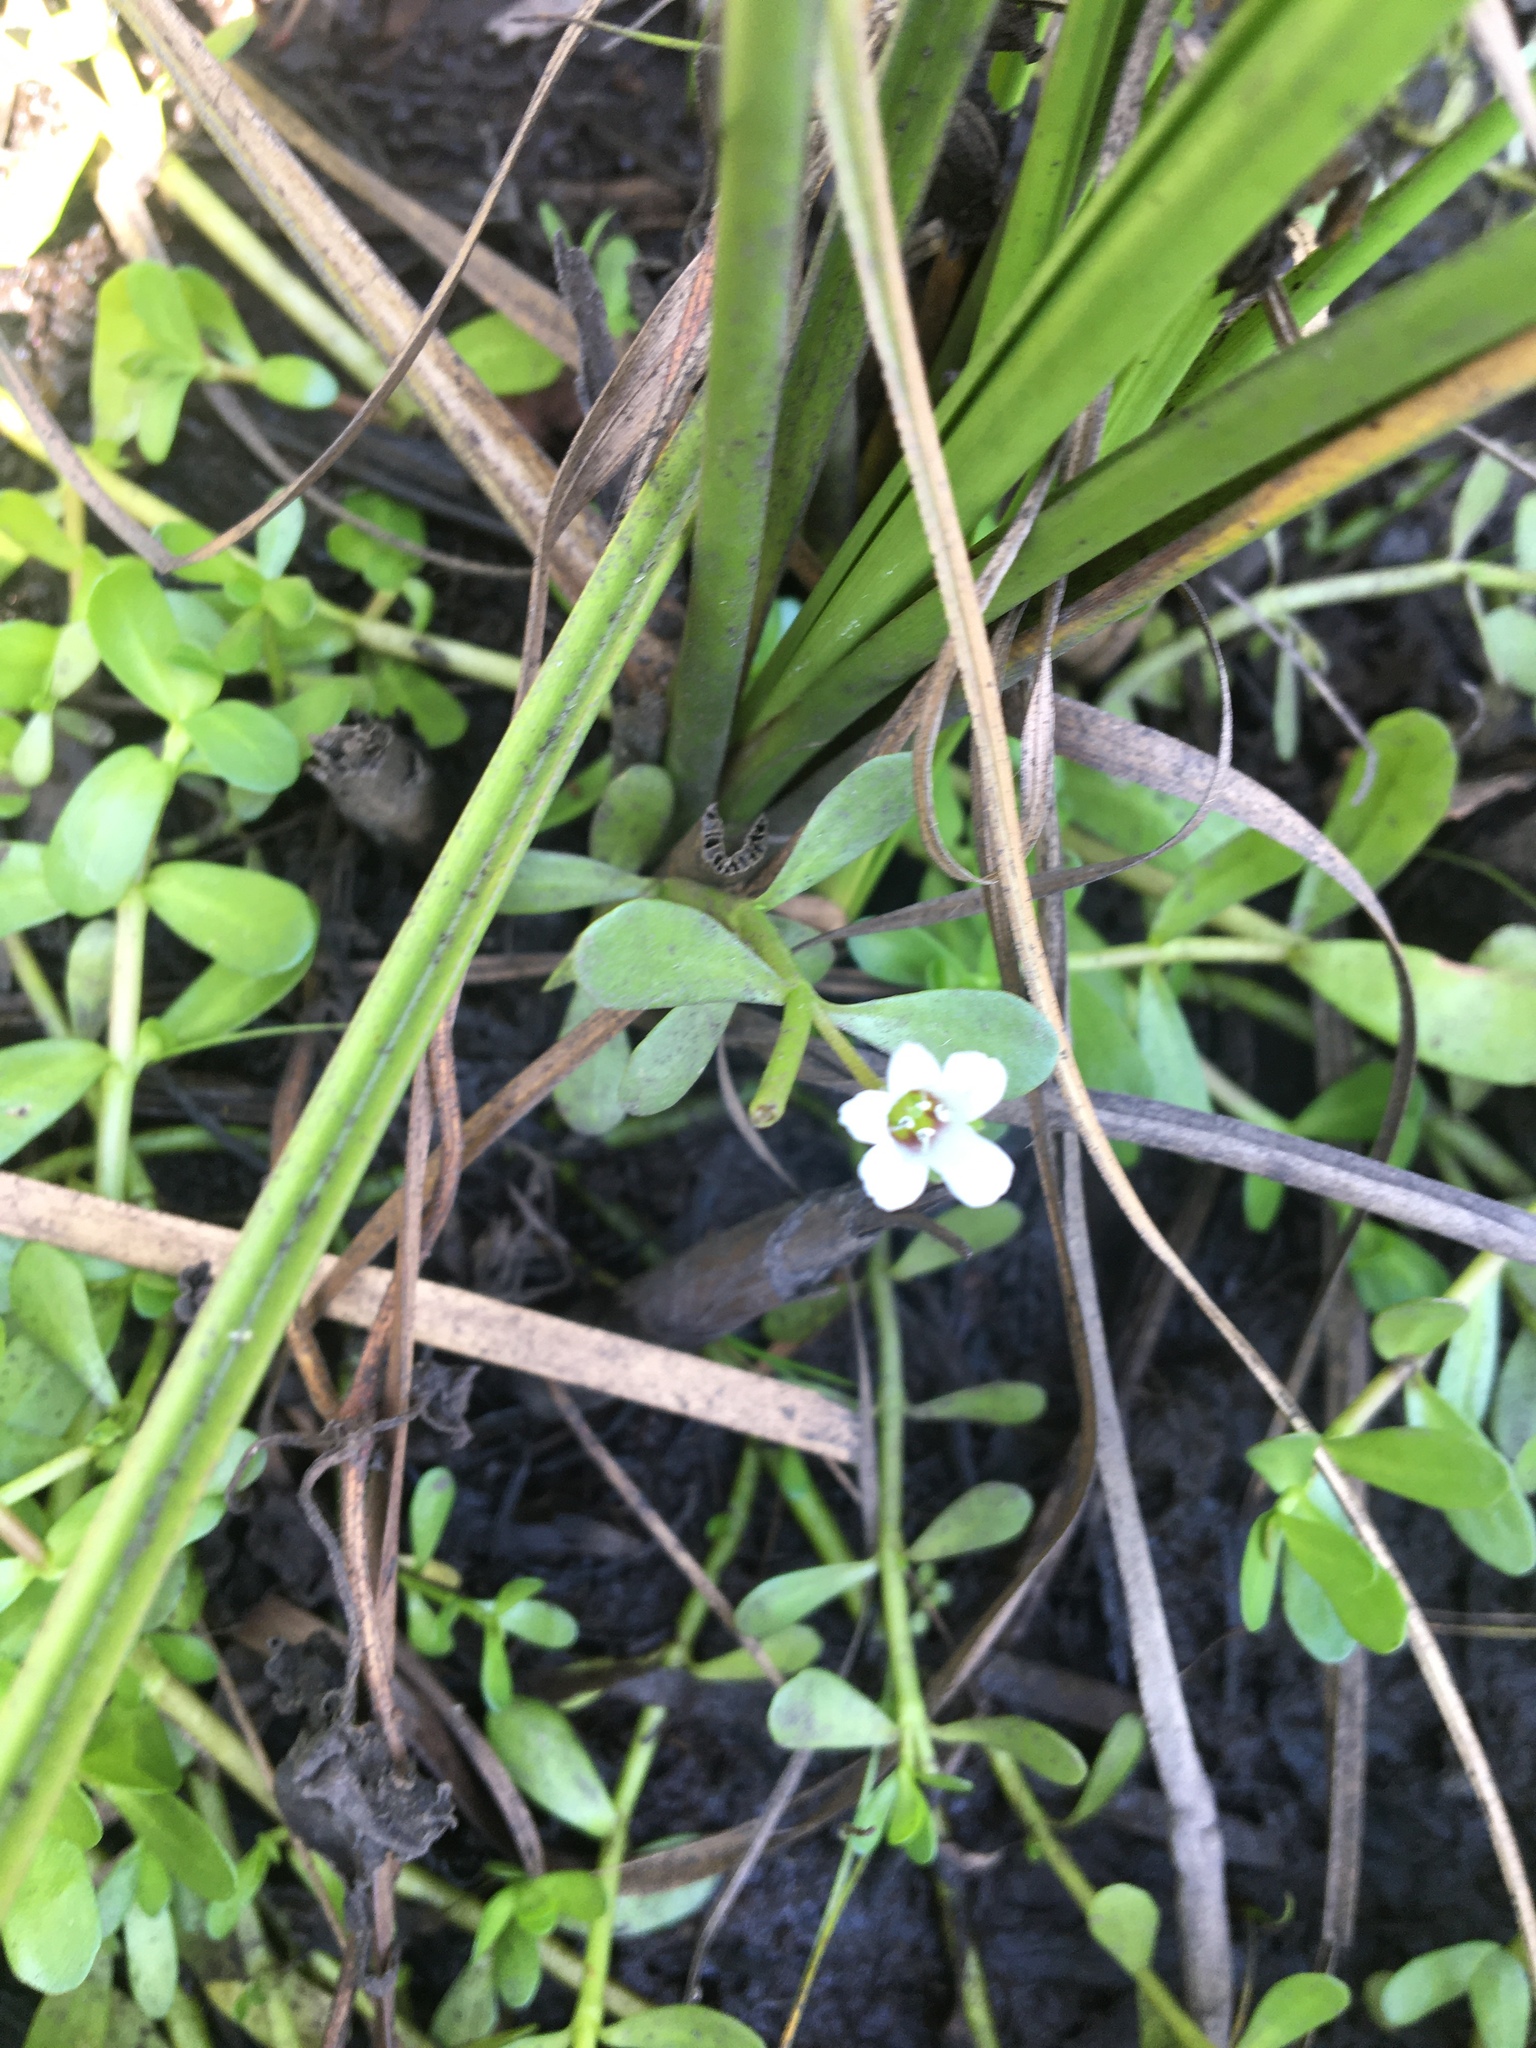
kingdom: Plantae
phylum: Tracheophyta
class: Magnoliopsida
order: Lamiales
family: Plantaginaceae
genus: Bacopa
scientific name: Bacopa monnieri
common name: Indian-pennywort
